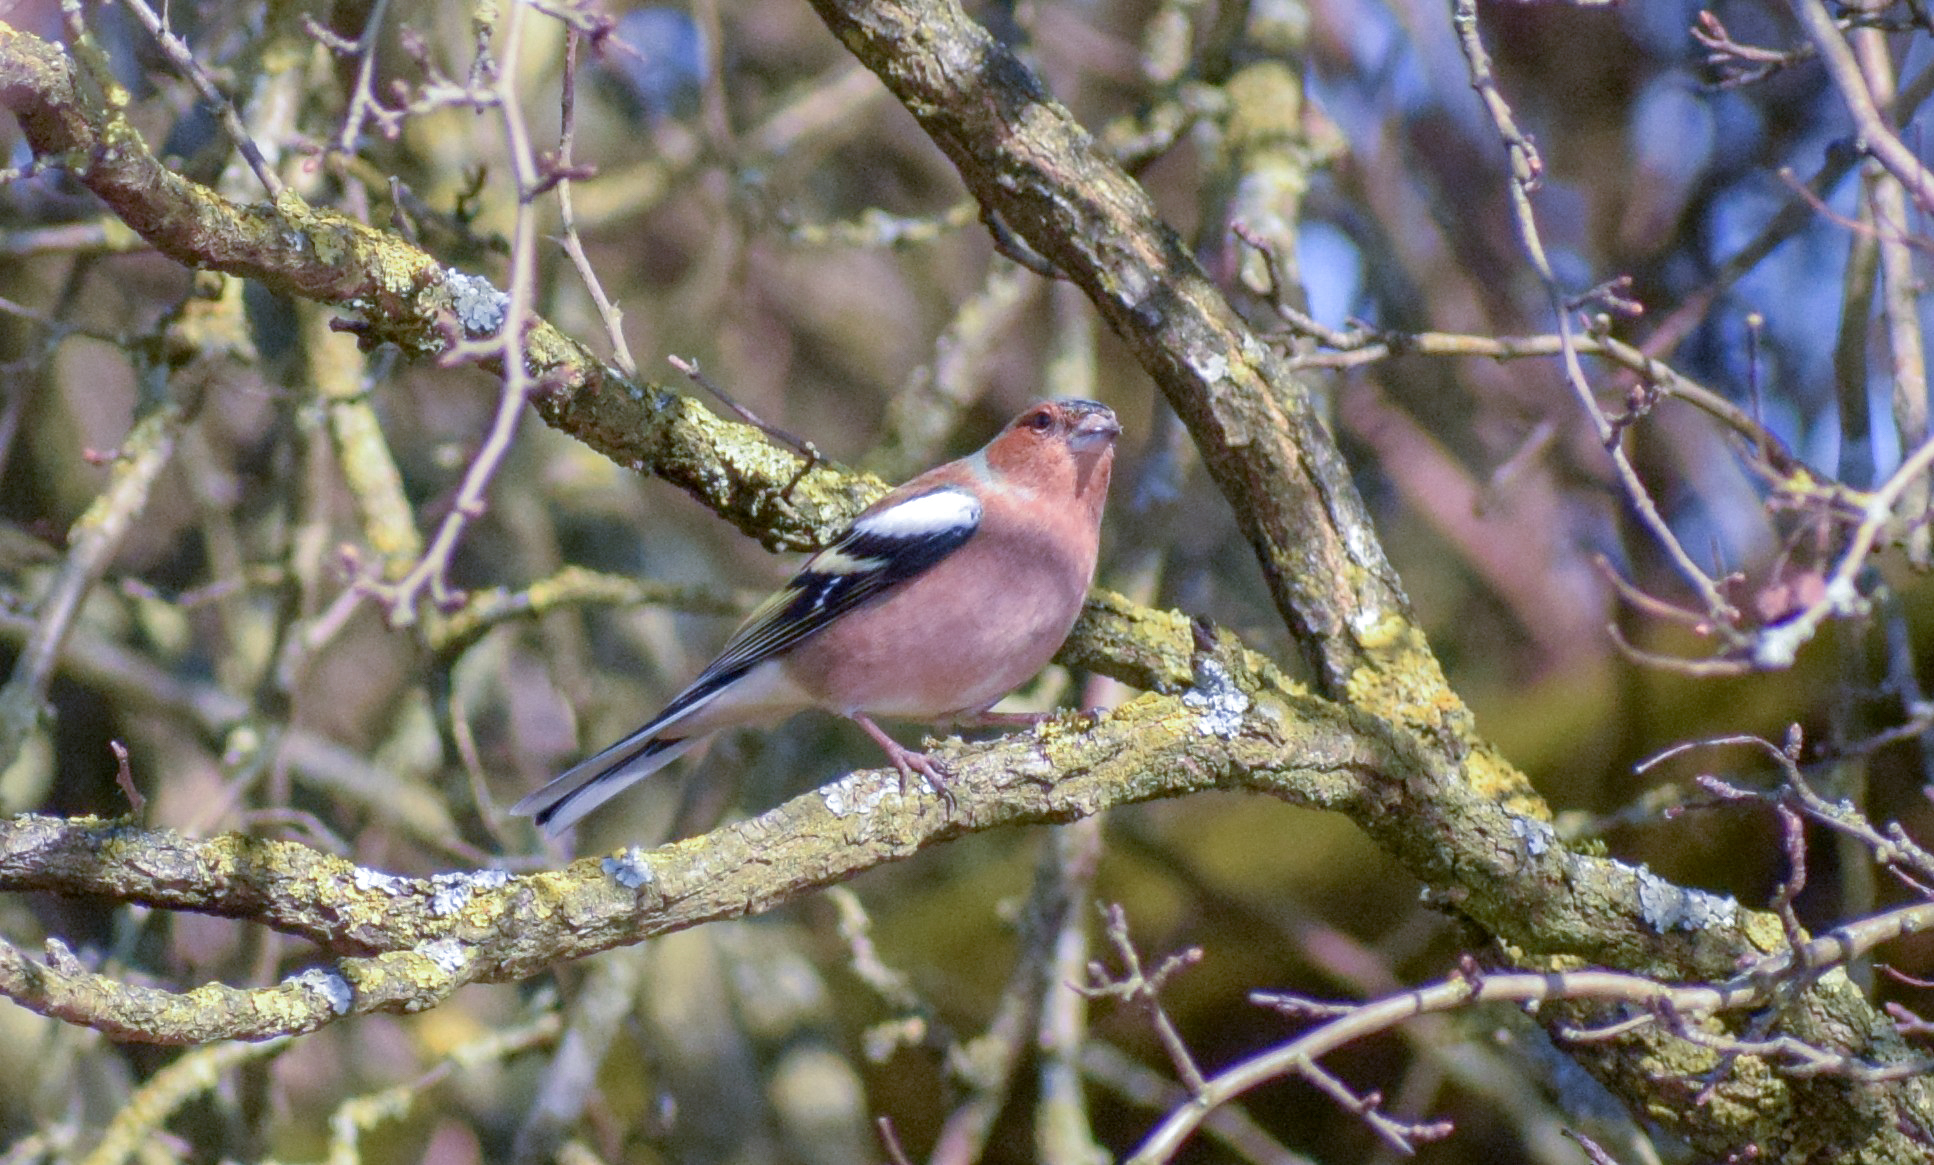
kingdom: Animalia
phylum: Chordata
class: Aves
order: Passeriformes
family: Fringillidae
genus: Fringilla
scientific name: Fringilla coelebs
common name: Common chaffinch
